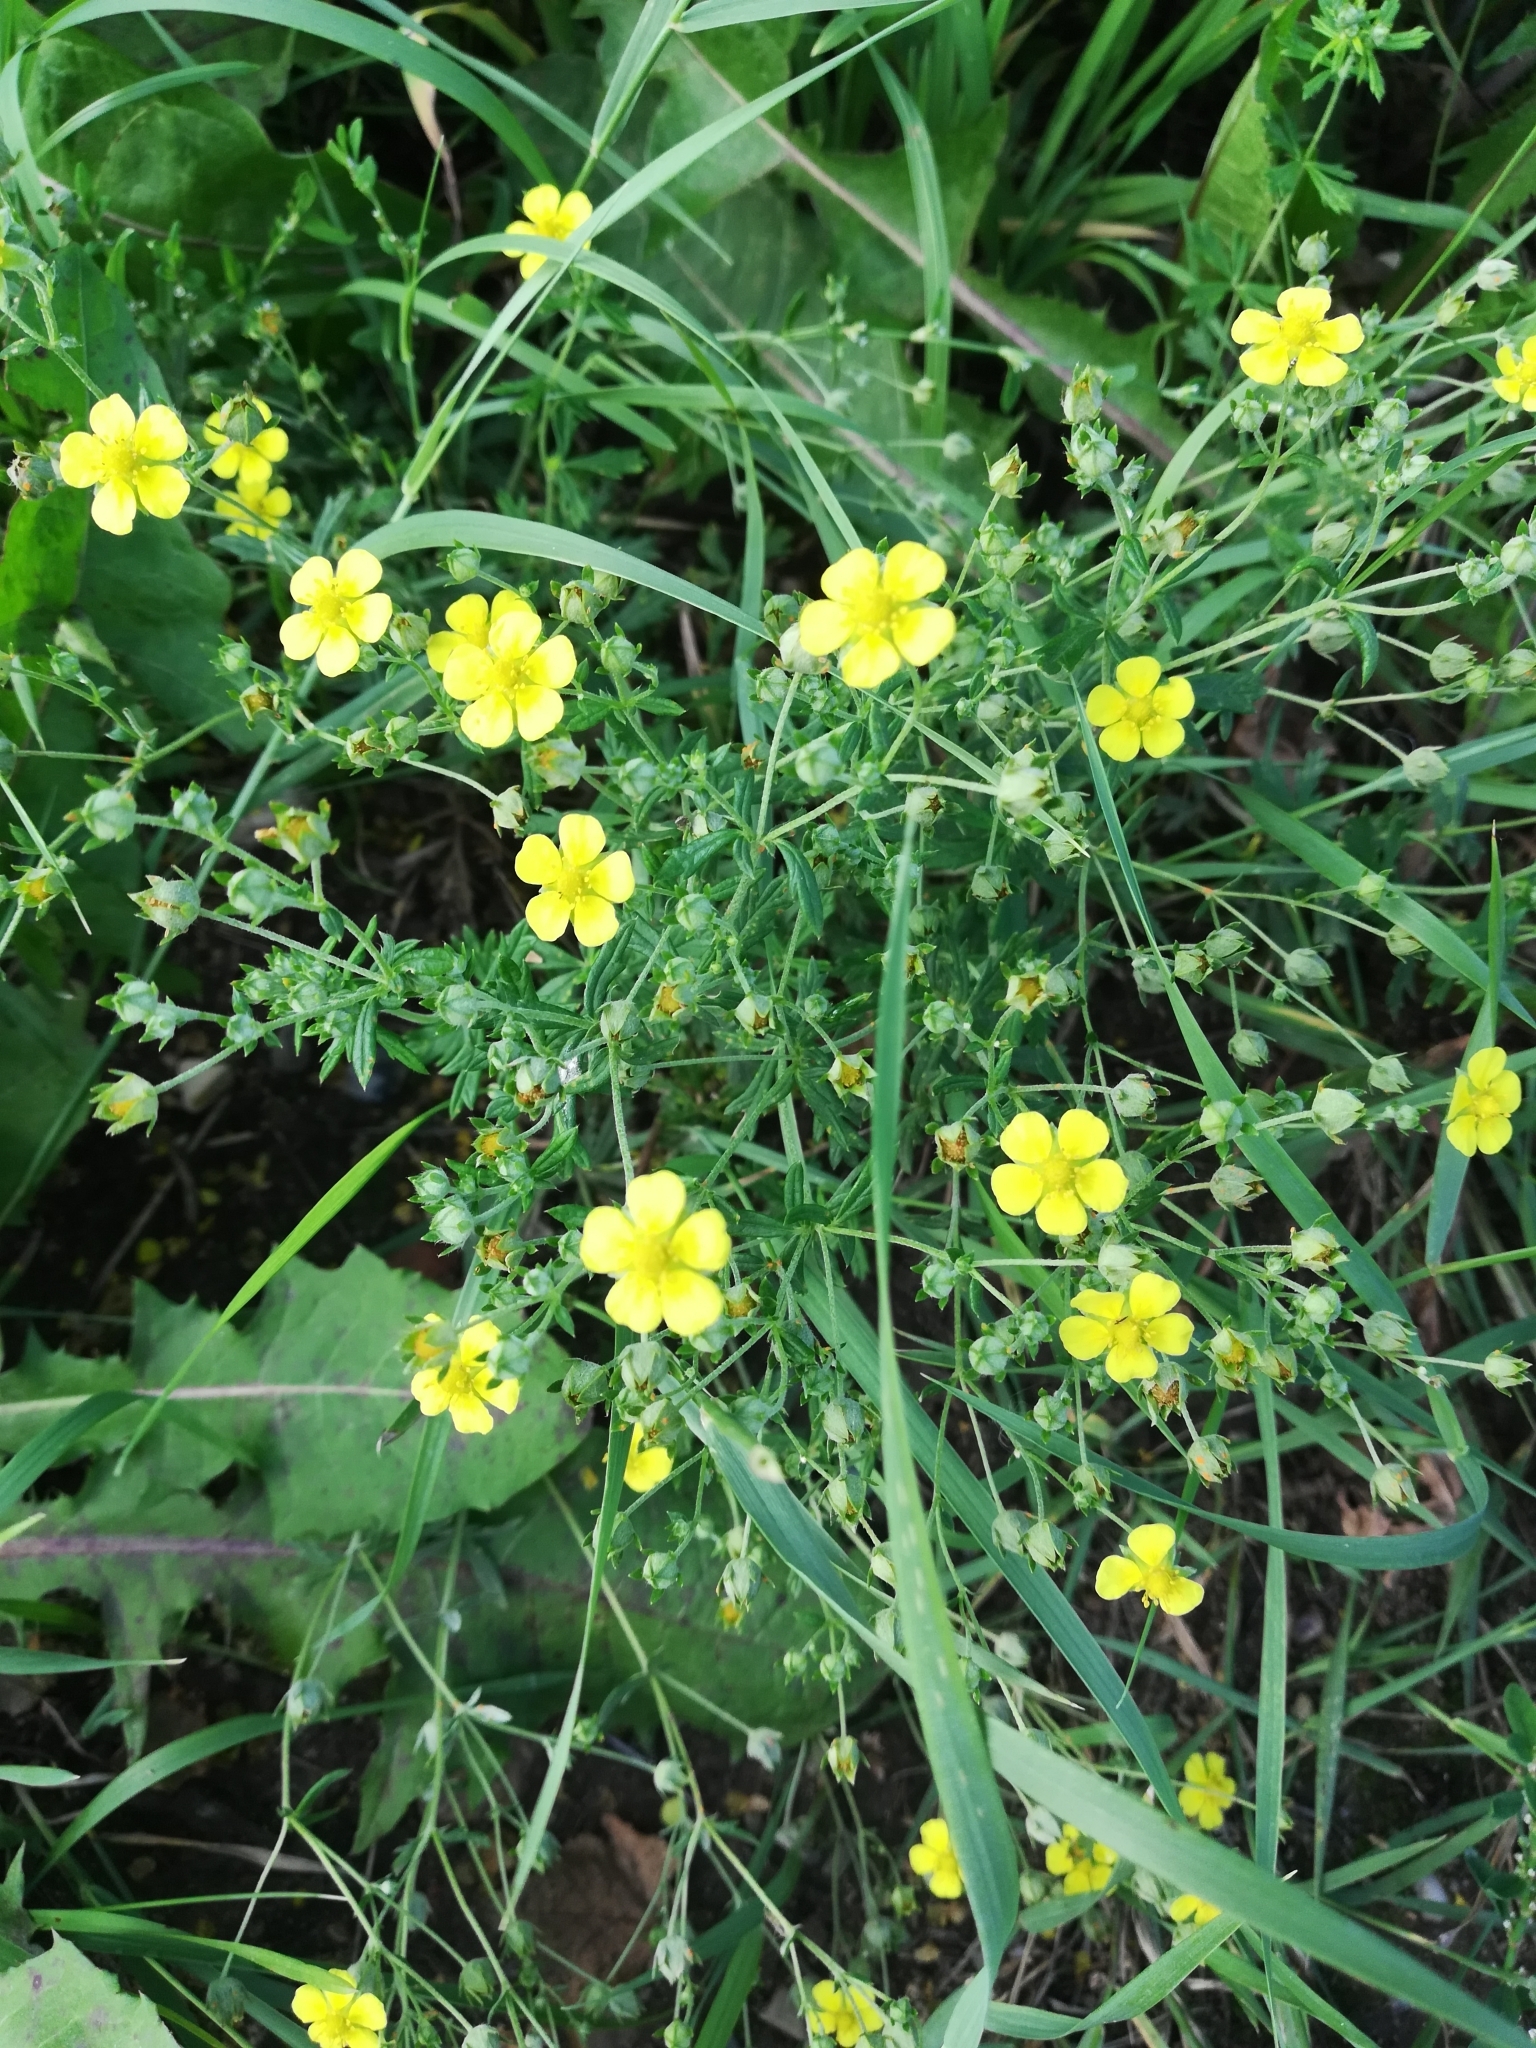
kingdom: Plantae
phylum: Tracheophyta
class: Magnoliopsida
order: Rosales
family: Rosaceae
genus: Potentilla
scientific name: Potentilla argentea
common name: Hoary cinquefoil
